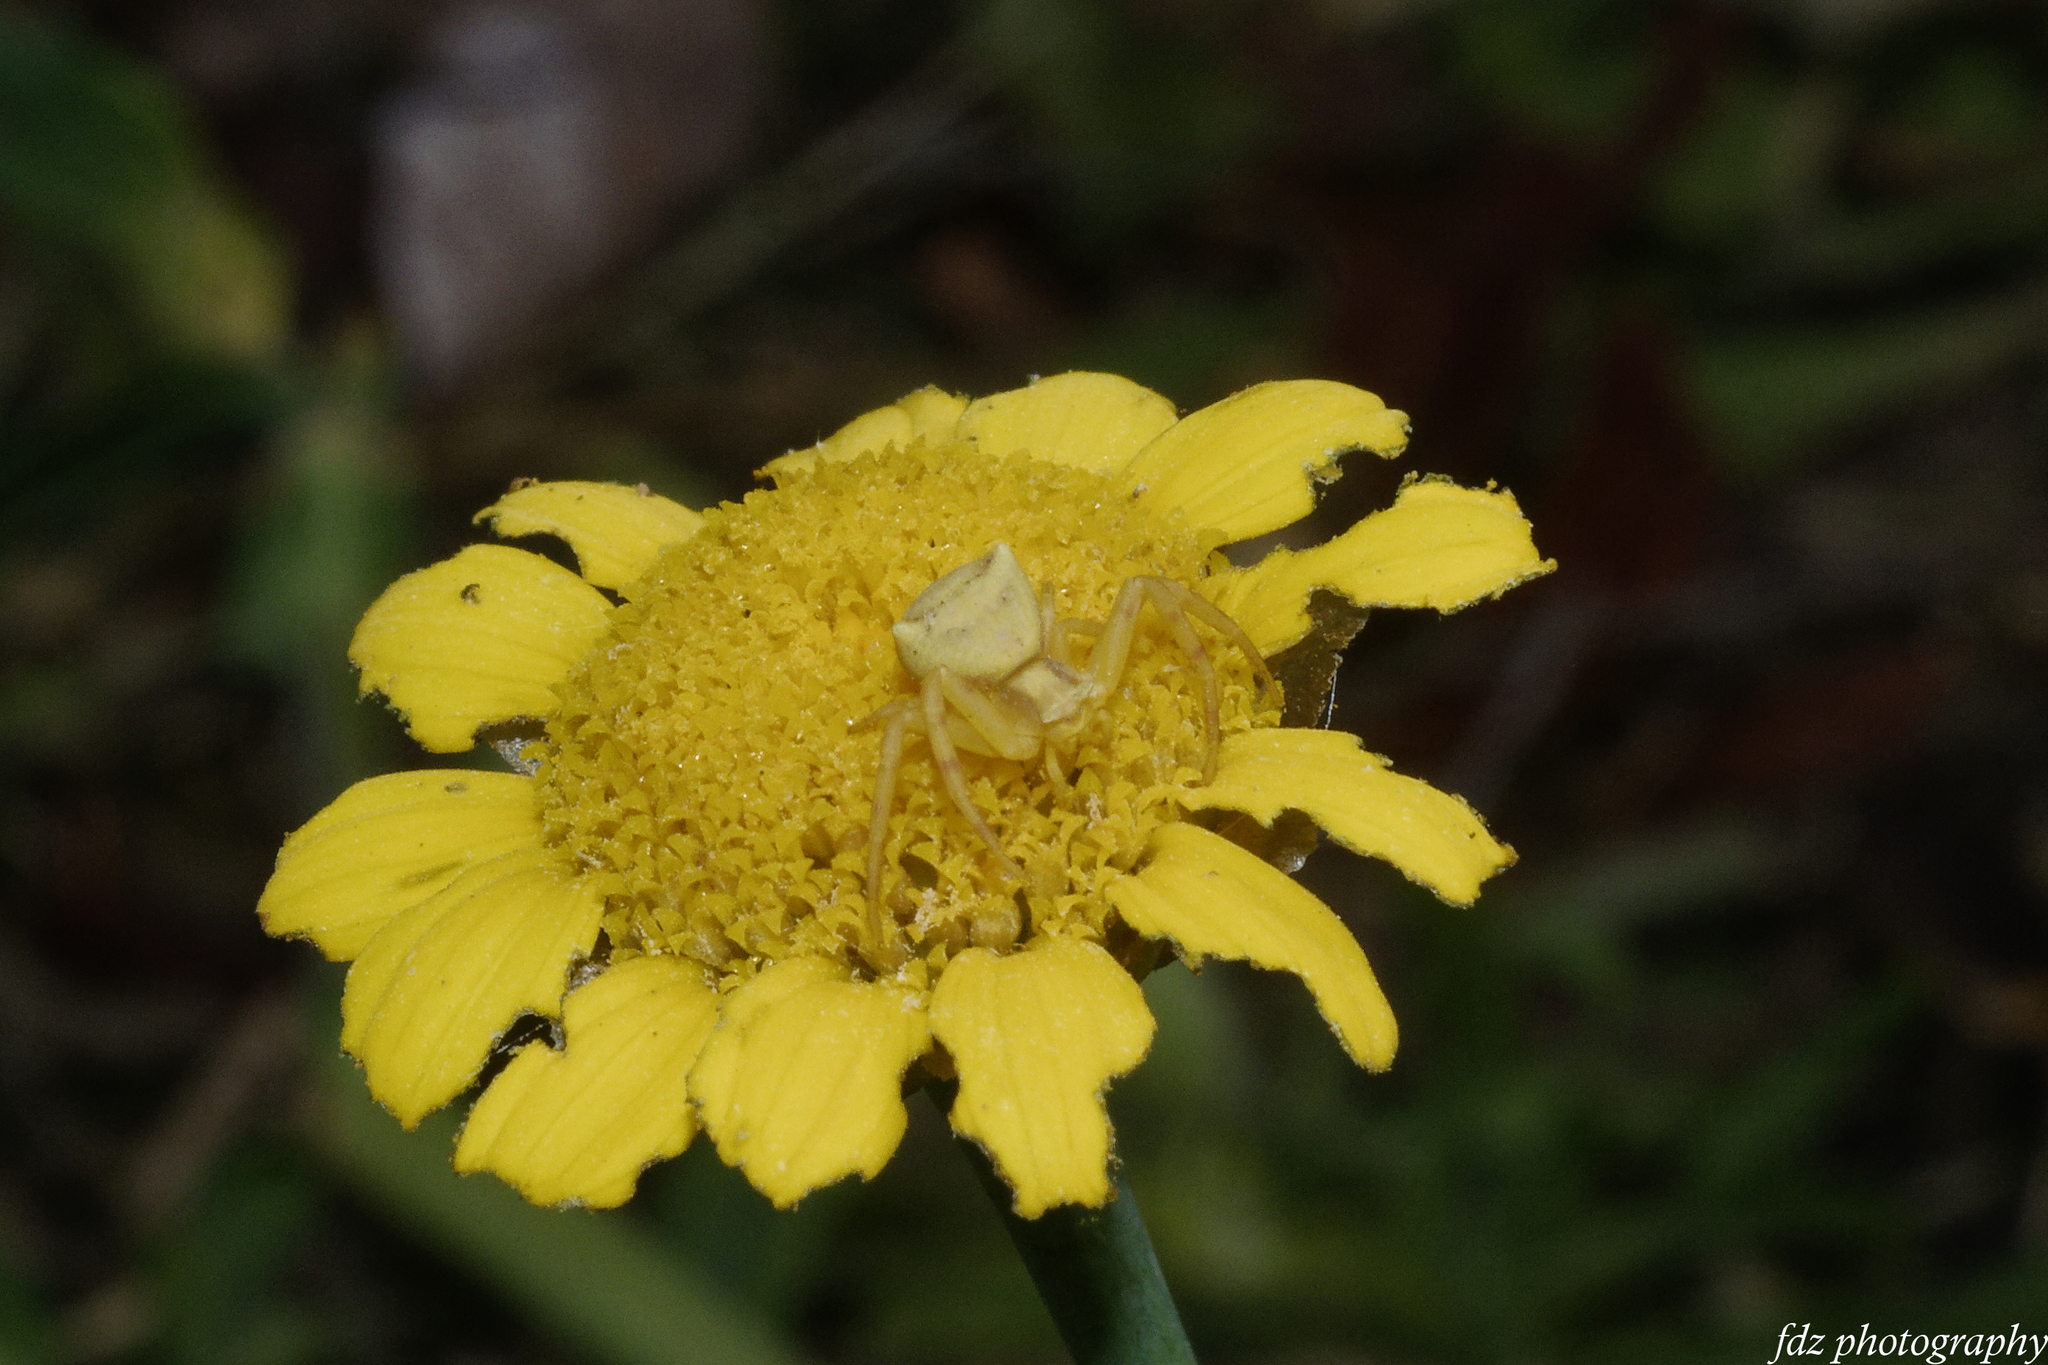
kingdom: Animalia
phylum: Arthropoda
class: Arachnida
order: Araneae
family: Thomisidae
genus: Thomisus
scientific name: Thomisus onustus
